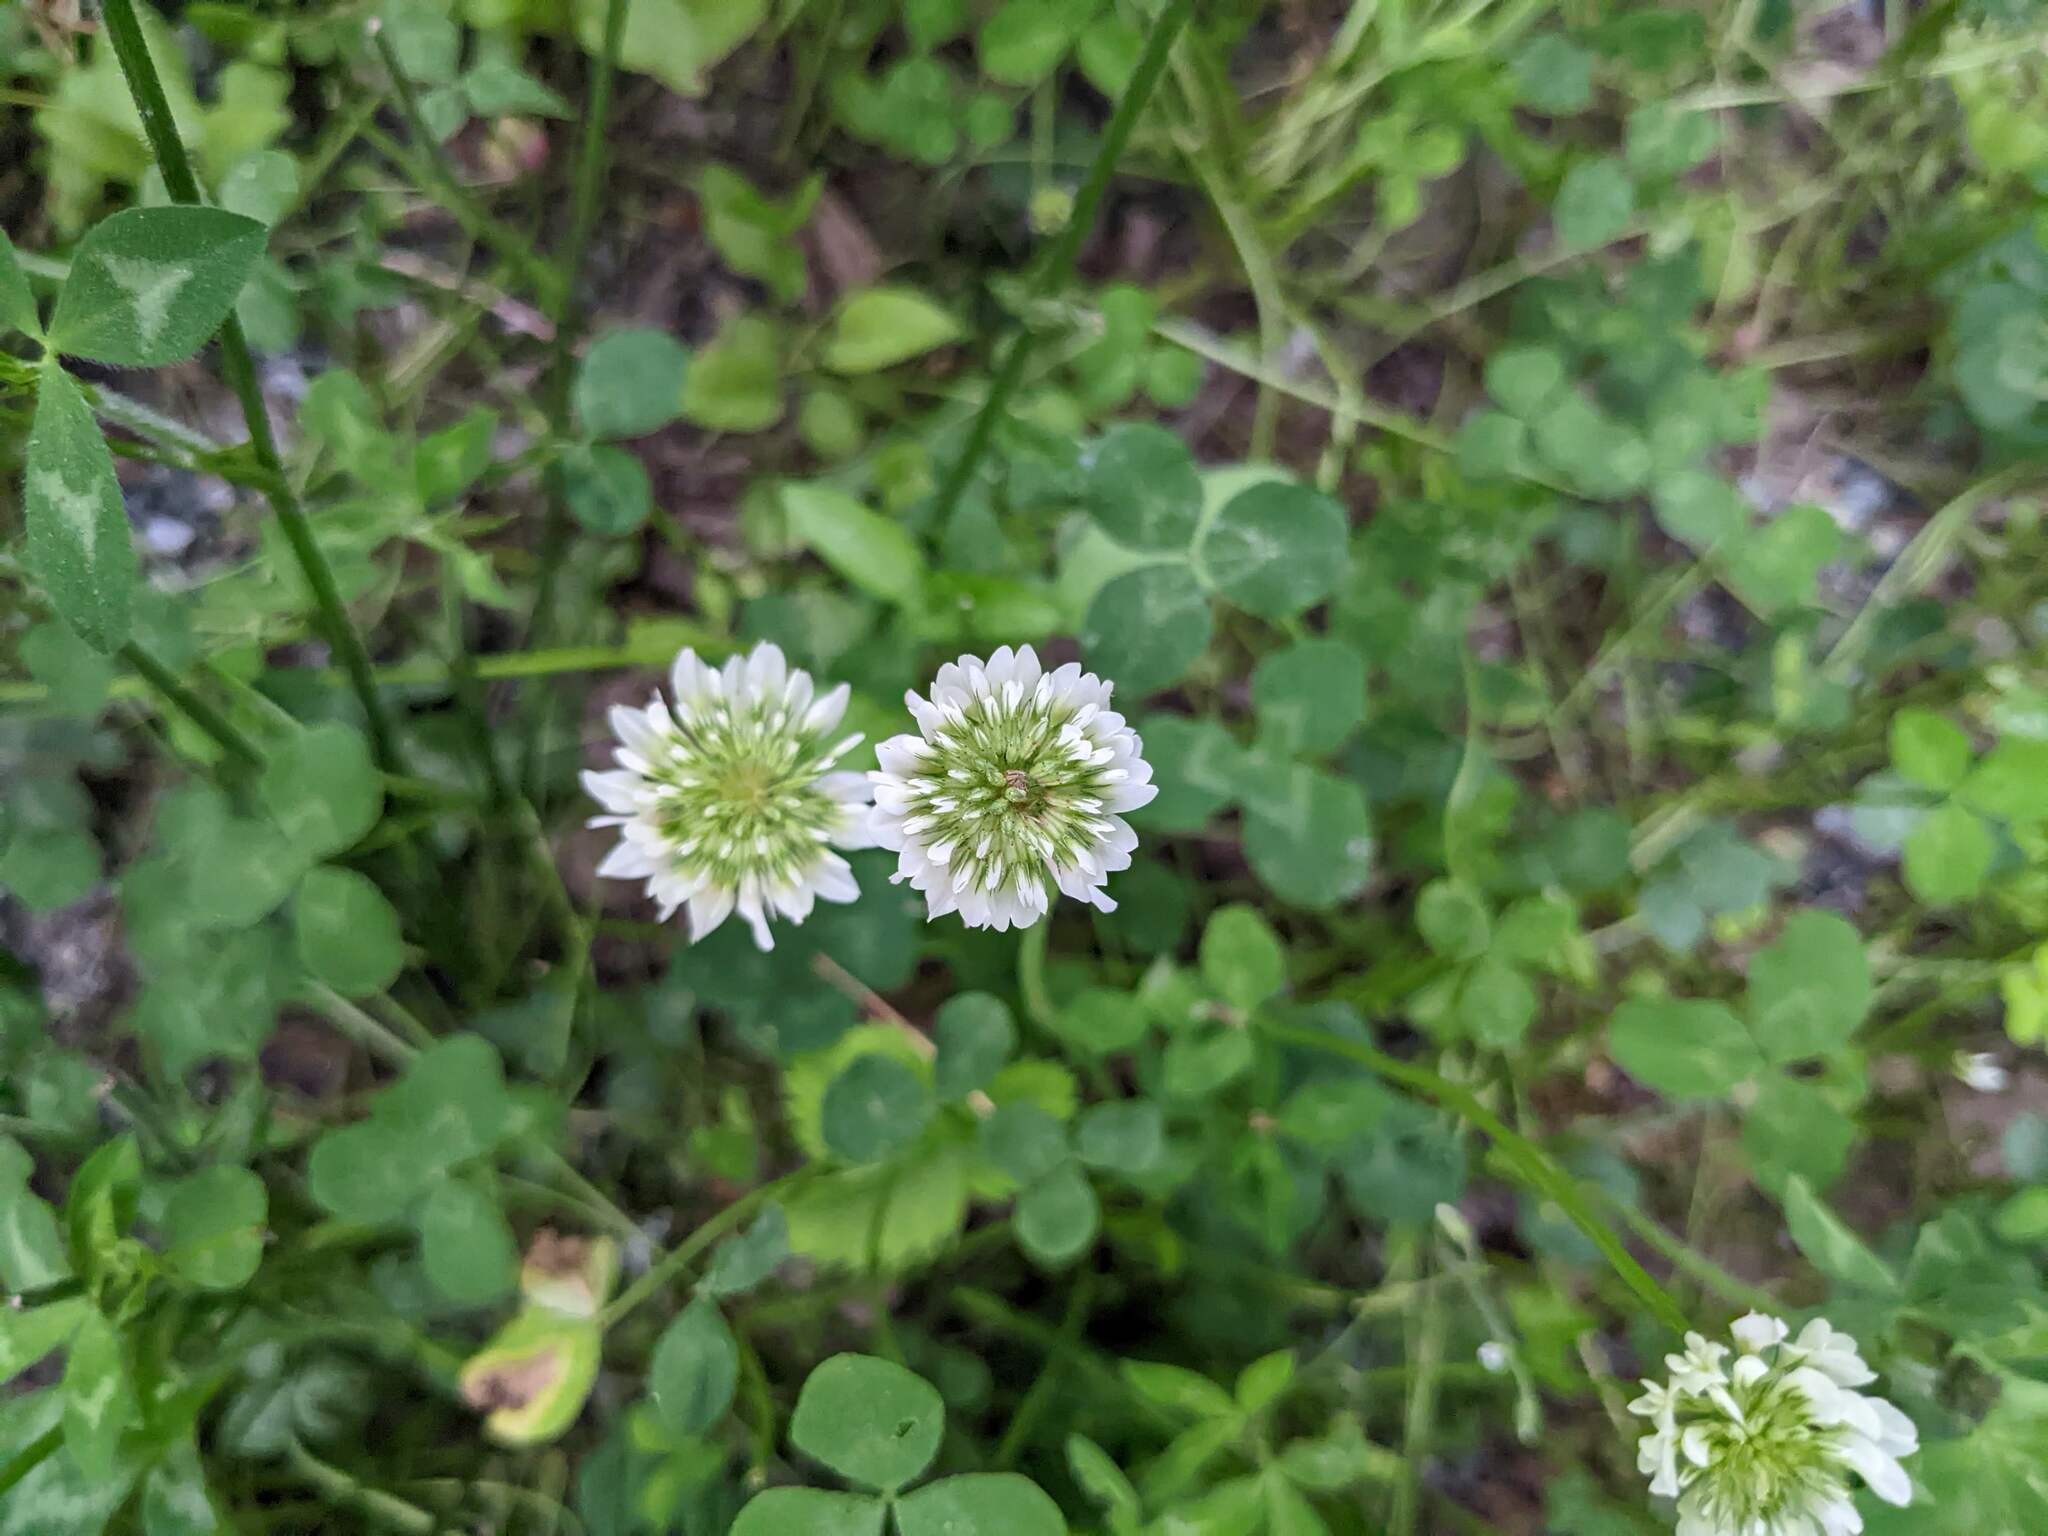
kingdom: Plantae
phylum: Tracheophyta
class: Magnoliopsida
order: Fabales
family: Fabaceae
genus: Trifolium
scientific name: Trifolium repens
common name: White clover
